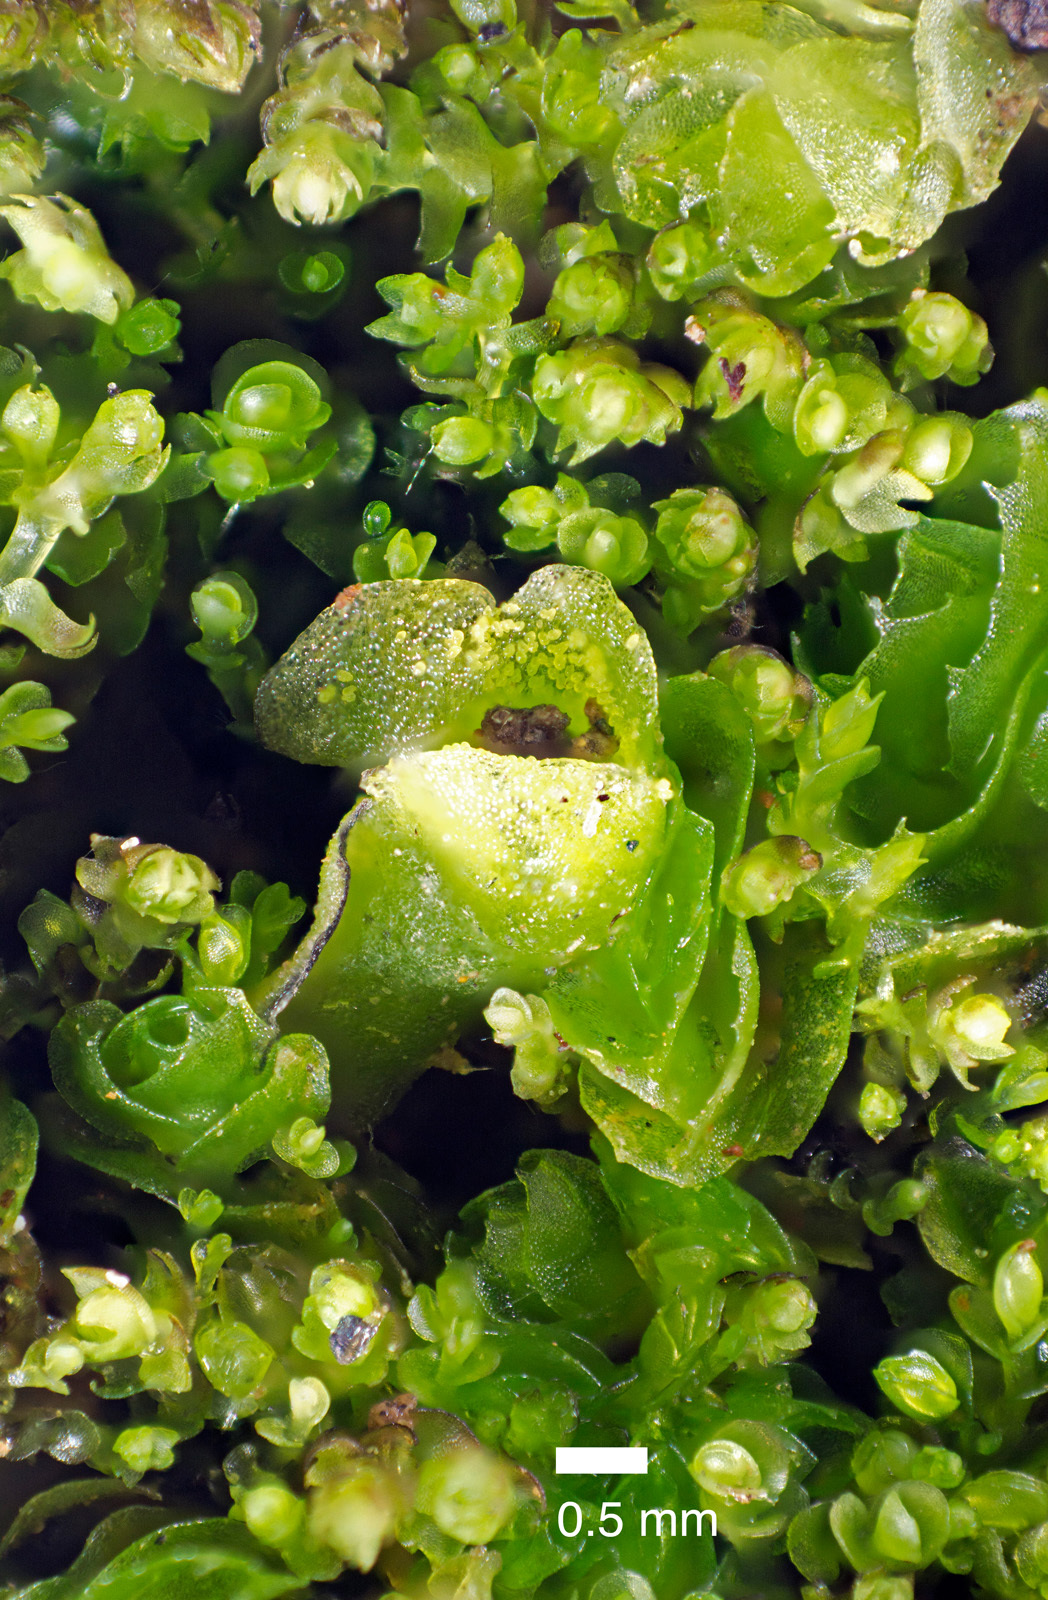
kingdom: Plantae
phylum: Marchantiophyta
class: Jungermanniopsida
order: Pallaviciniales
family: Pallaviciniaceae
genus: Xenothallus
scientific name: Xenothallus vulcanicola
